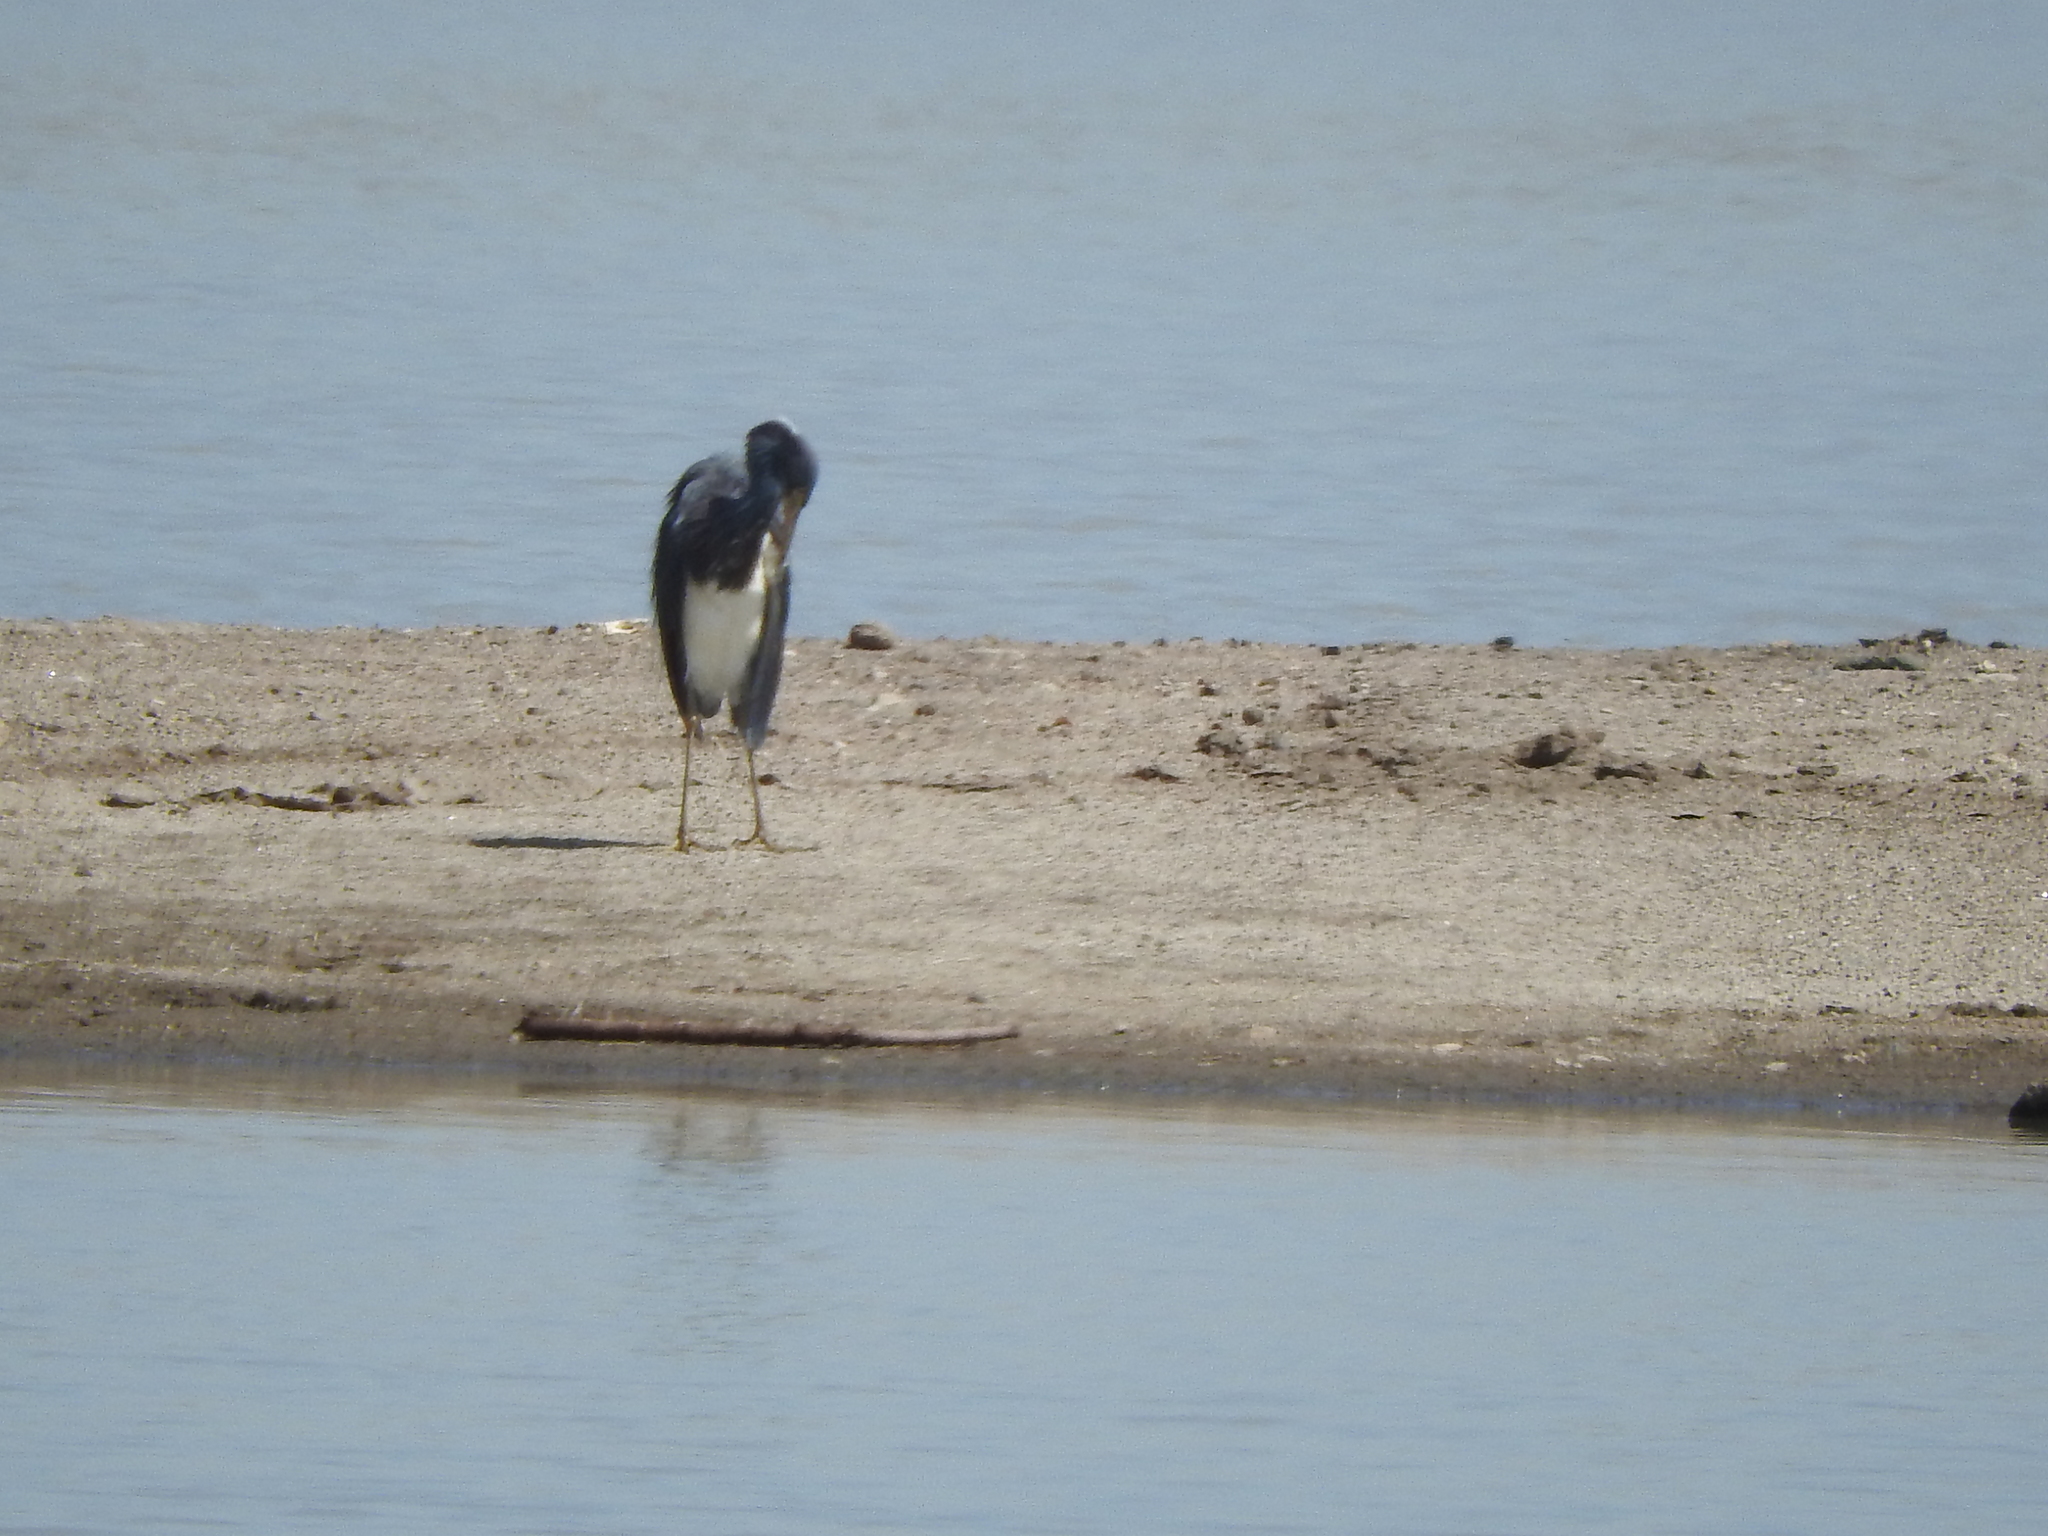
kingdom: Animalia
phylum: Chordata
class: Aves
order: Pelecaniformes
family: Ardeidae
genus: Egretta
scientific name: Egretta tricolor
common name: Tricolored heron
